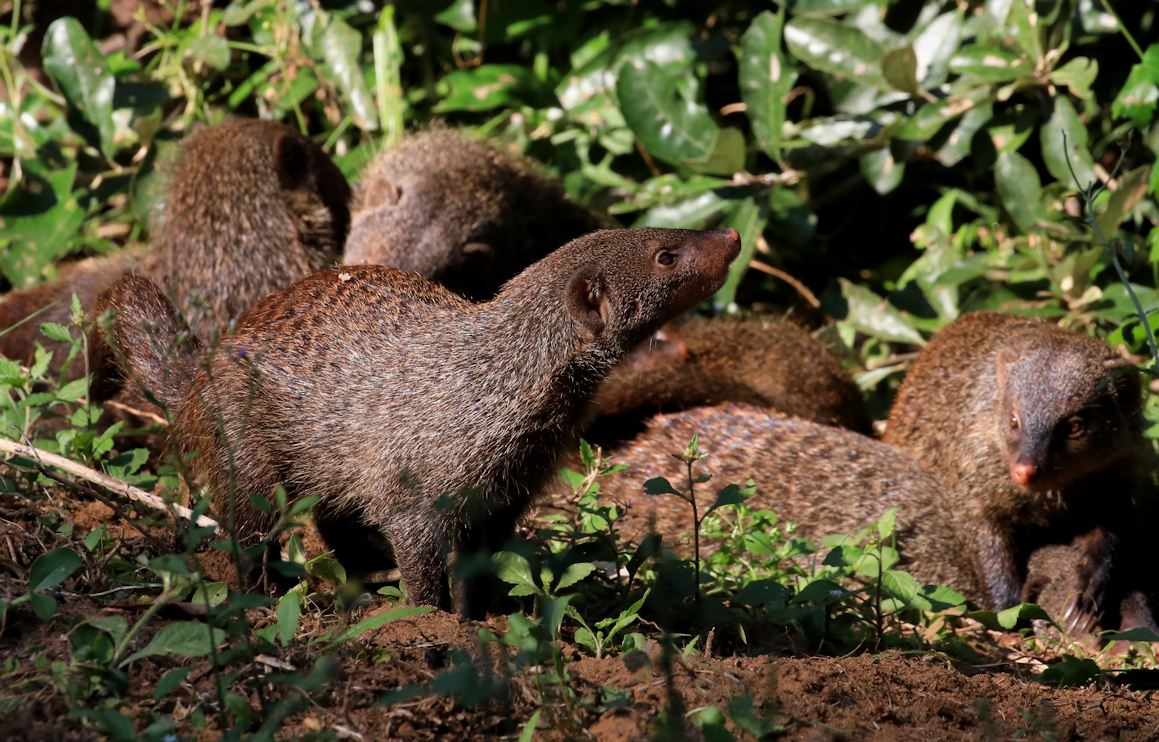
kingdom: Animalia
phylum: Chordata
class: Mammalia
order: Carnivora
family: Herpestidae
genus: Mungos
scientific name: Mungos mungo
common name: Banded mongoose
